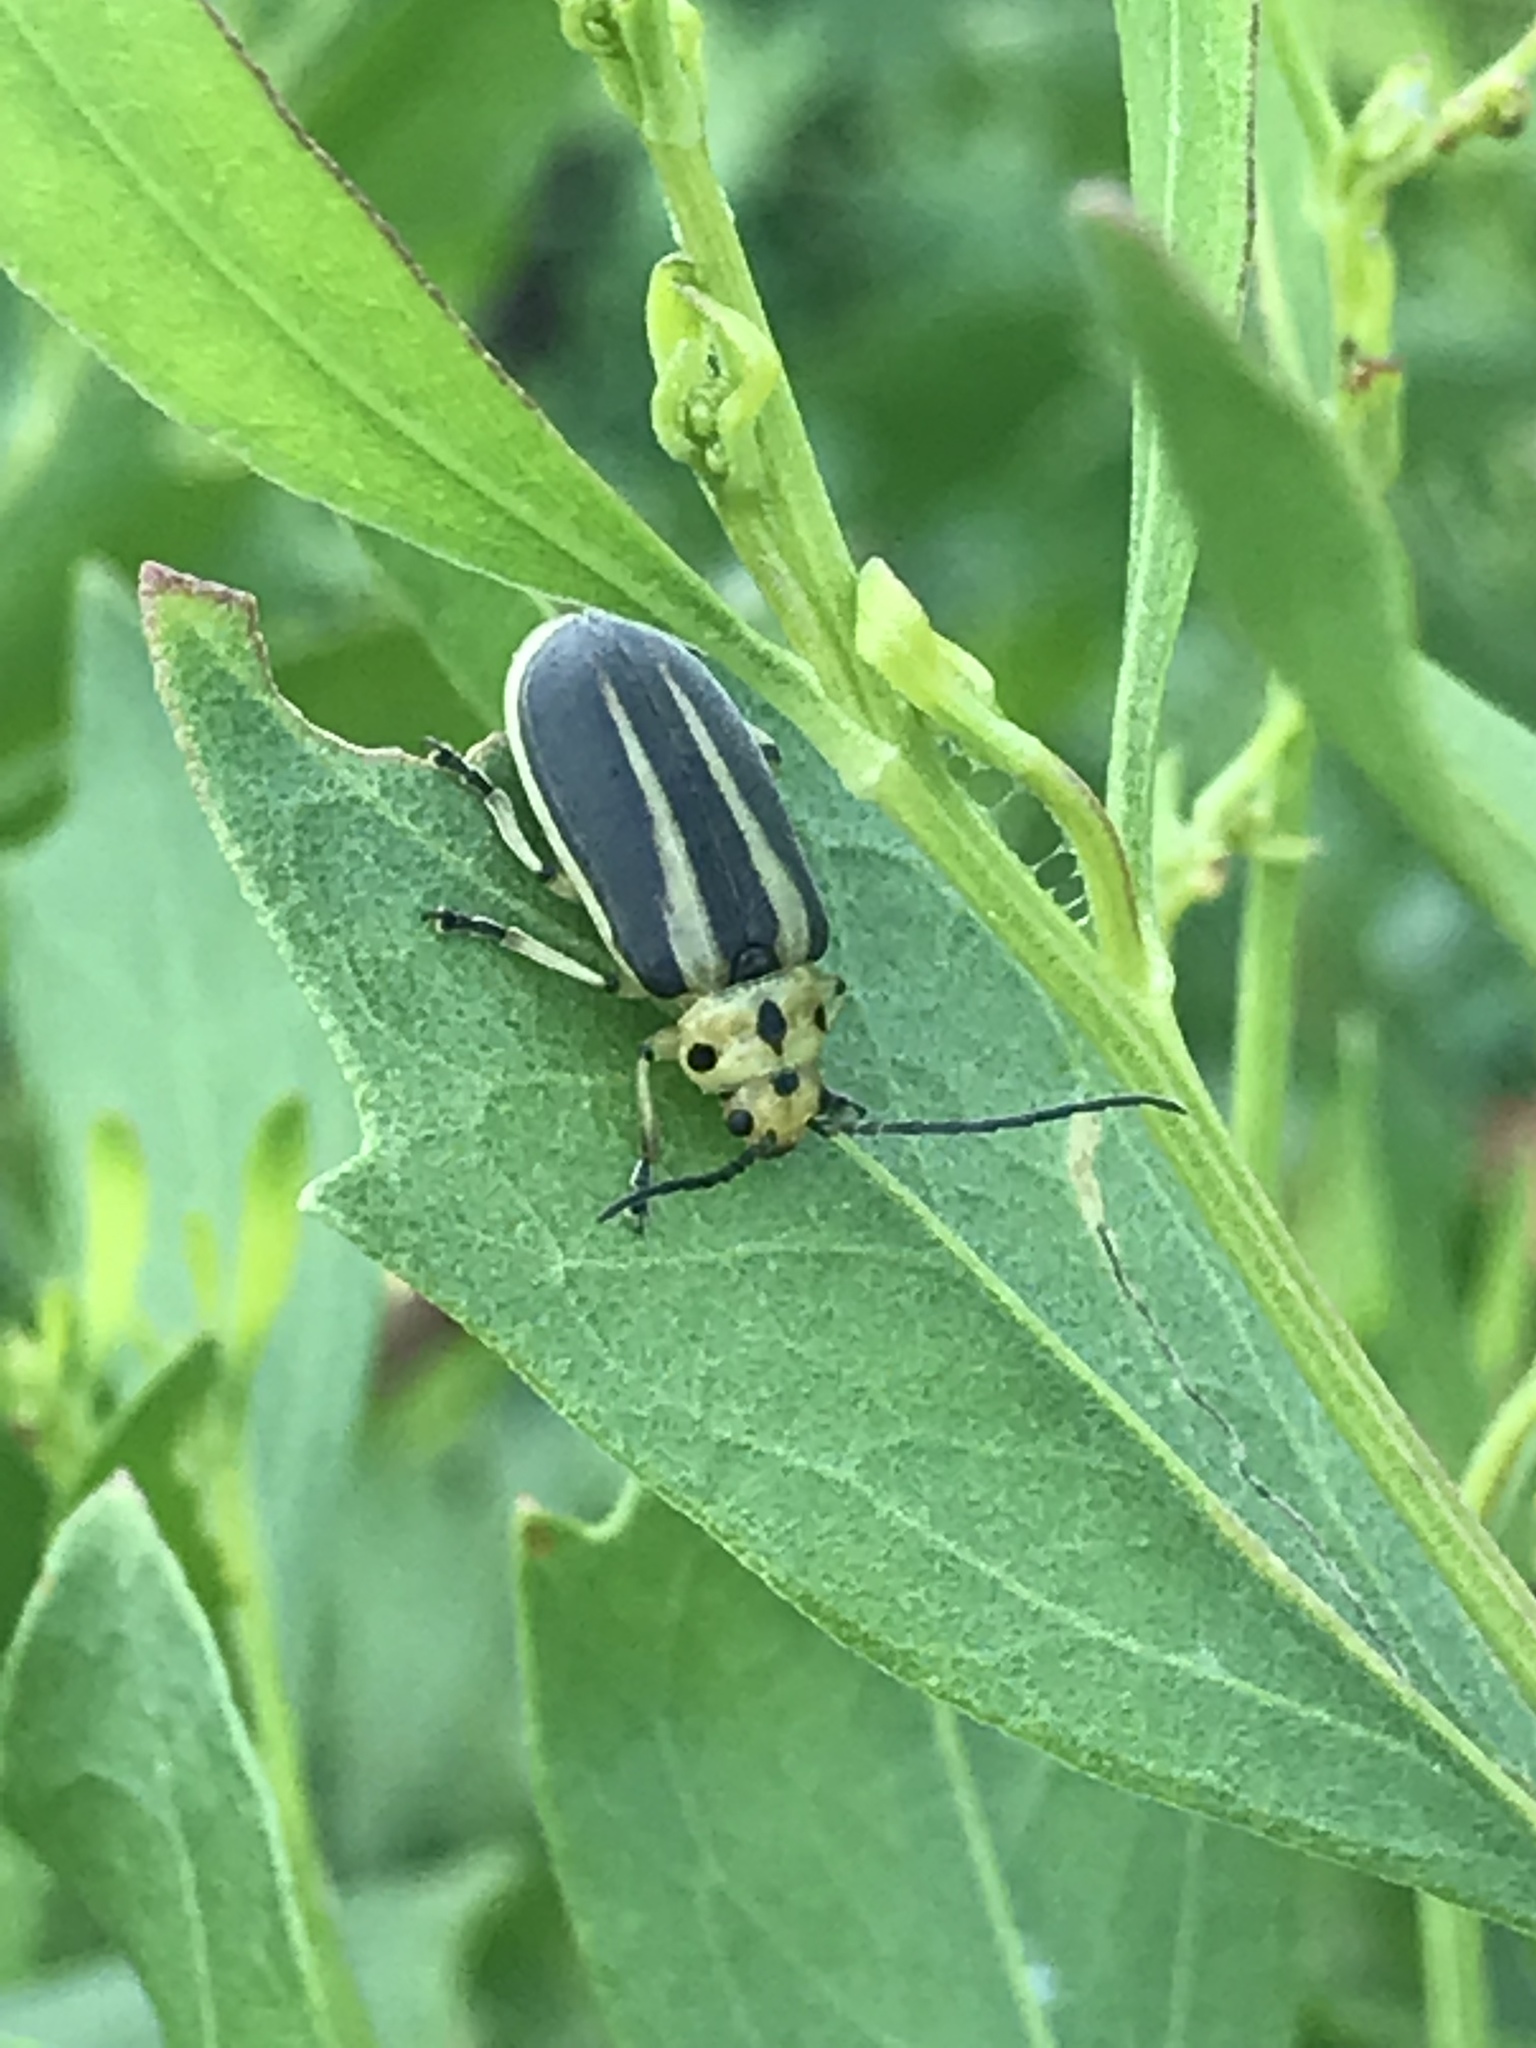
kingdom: Animalia
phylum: Arthropoda
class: Insecta
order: Coleoptera
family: Chrysomelidae
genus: Trirhabda
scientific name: Trirhabda bacharidis
